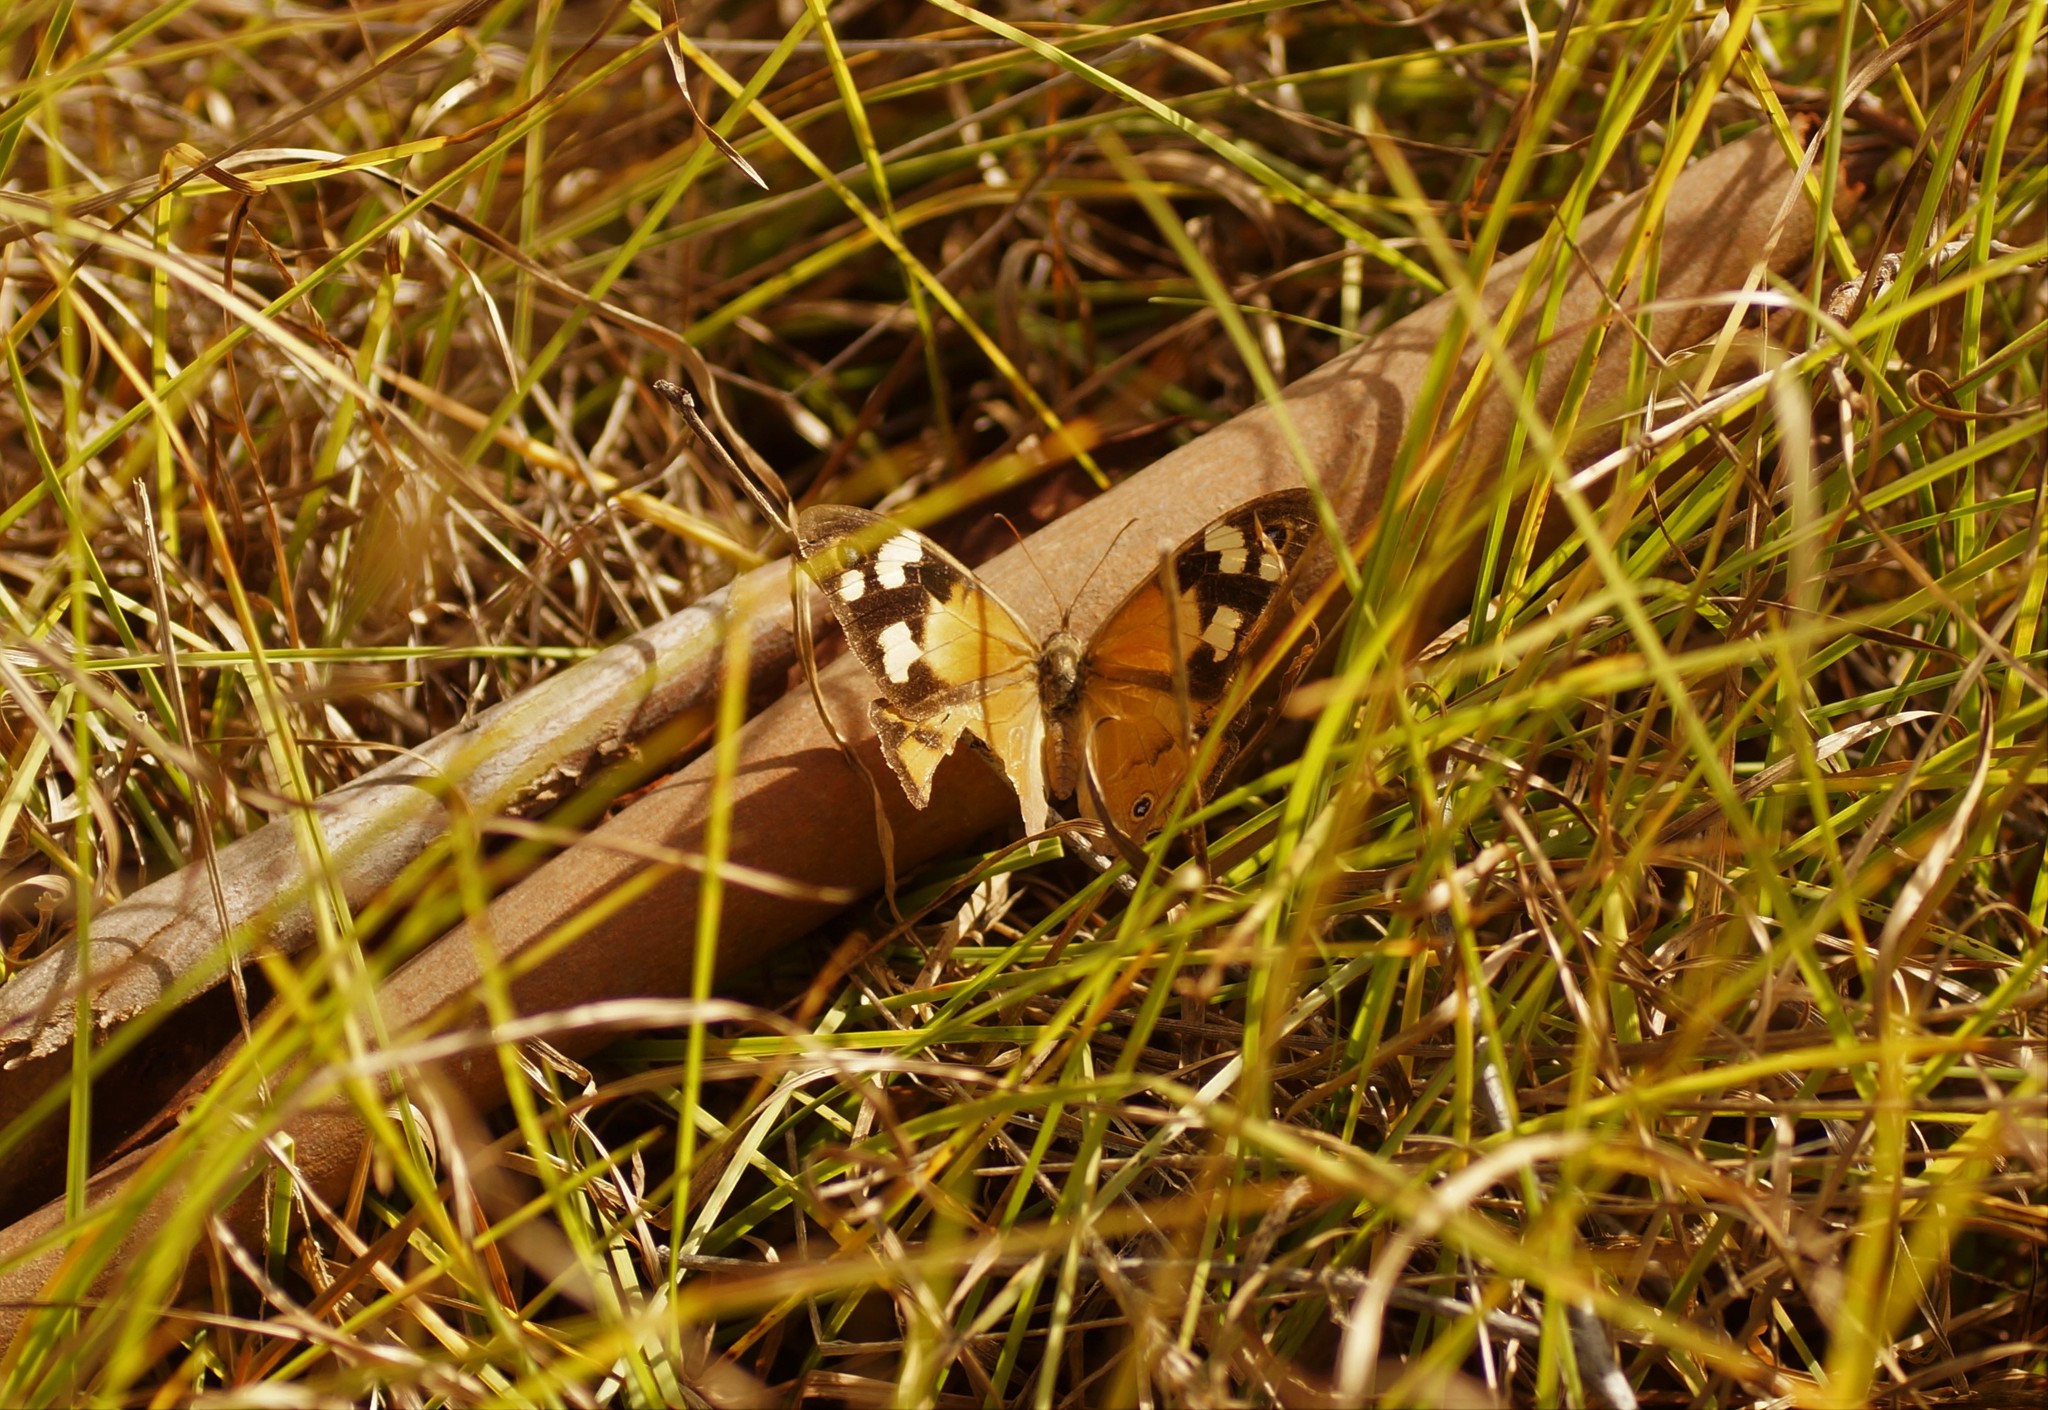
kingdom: Animalia
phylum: Arthropoda
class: Insecta
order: Lepidoptera
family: Nymphalidae
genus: Heteronympha
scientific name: Heteronympha merope
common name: Common brown
